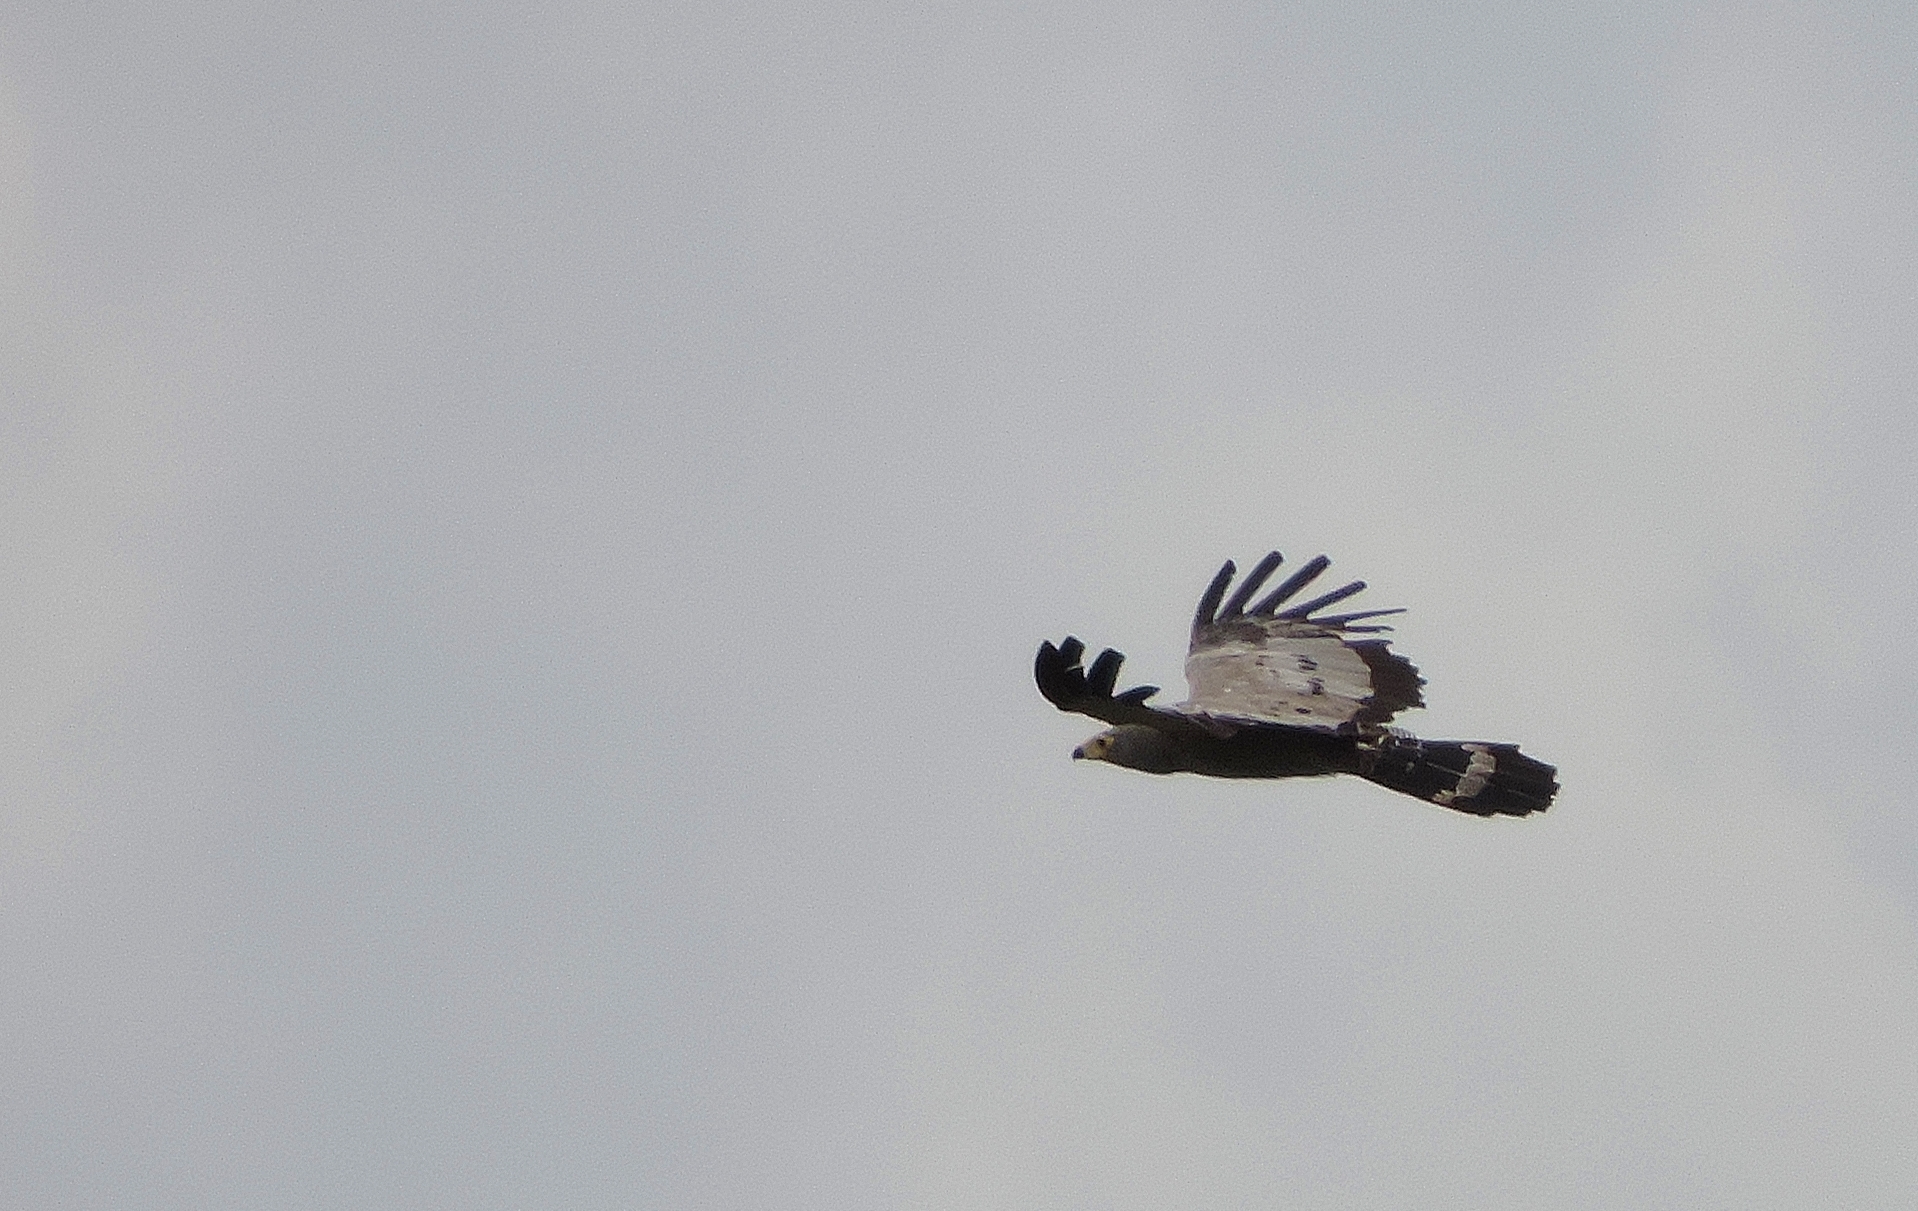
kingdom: Animalia
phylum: Chordata
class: Aves
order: Accipitriformes
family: Accipitridae
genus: Polyboroides
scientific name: Polyboroides typus
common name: African harrier-hawk
